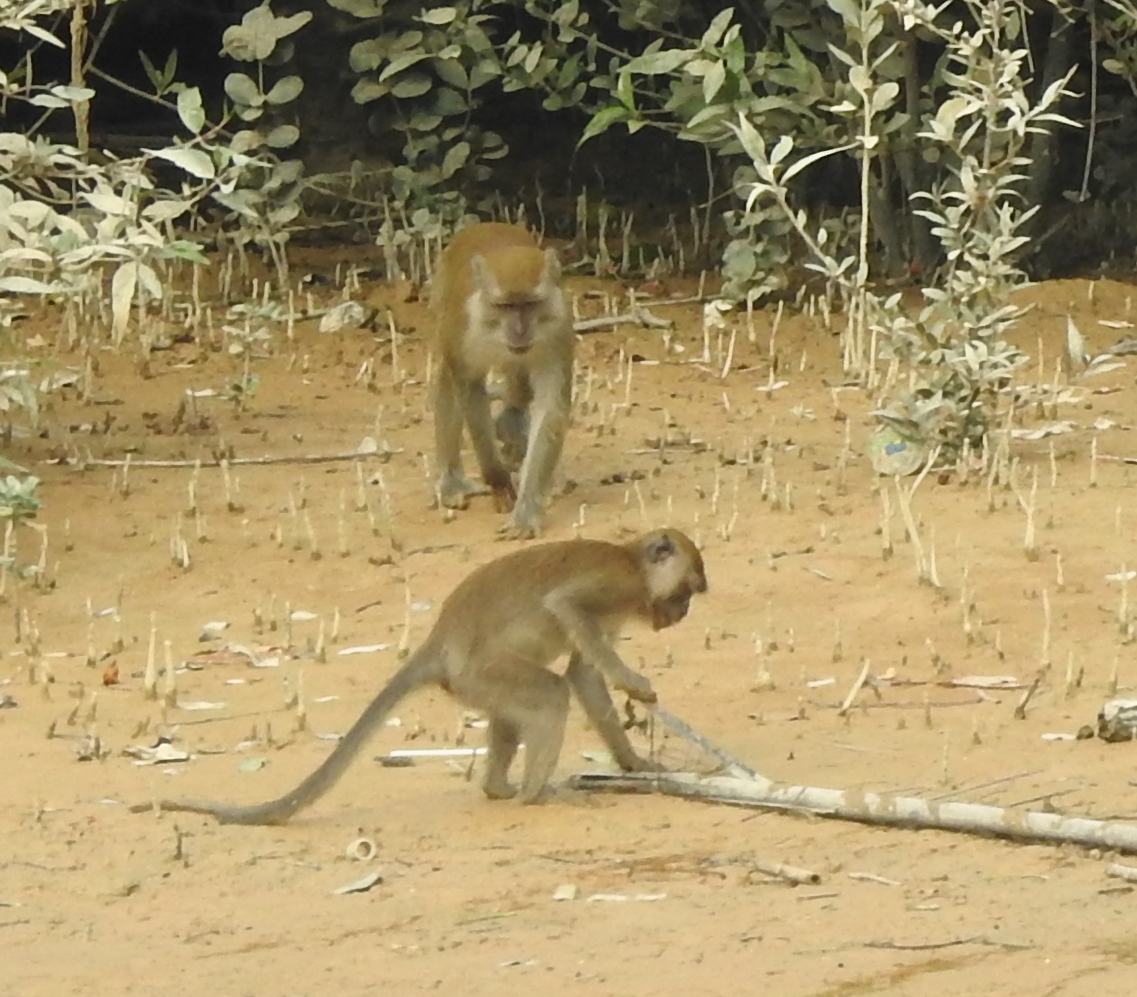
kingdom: Animalia
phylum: Chordata
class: Mammalia
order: Primates
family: Cercopithecidae
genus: Macaca
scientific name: Macaca fascicularis
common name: Crab-eating macaque
